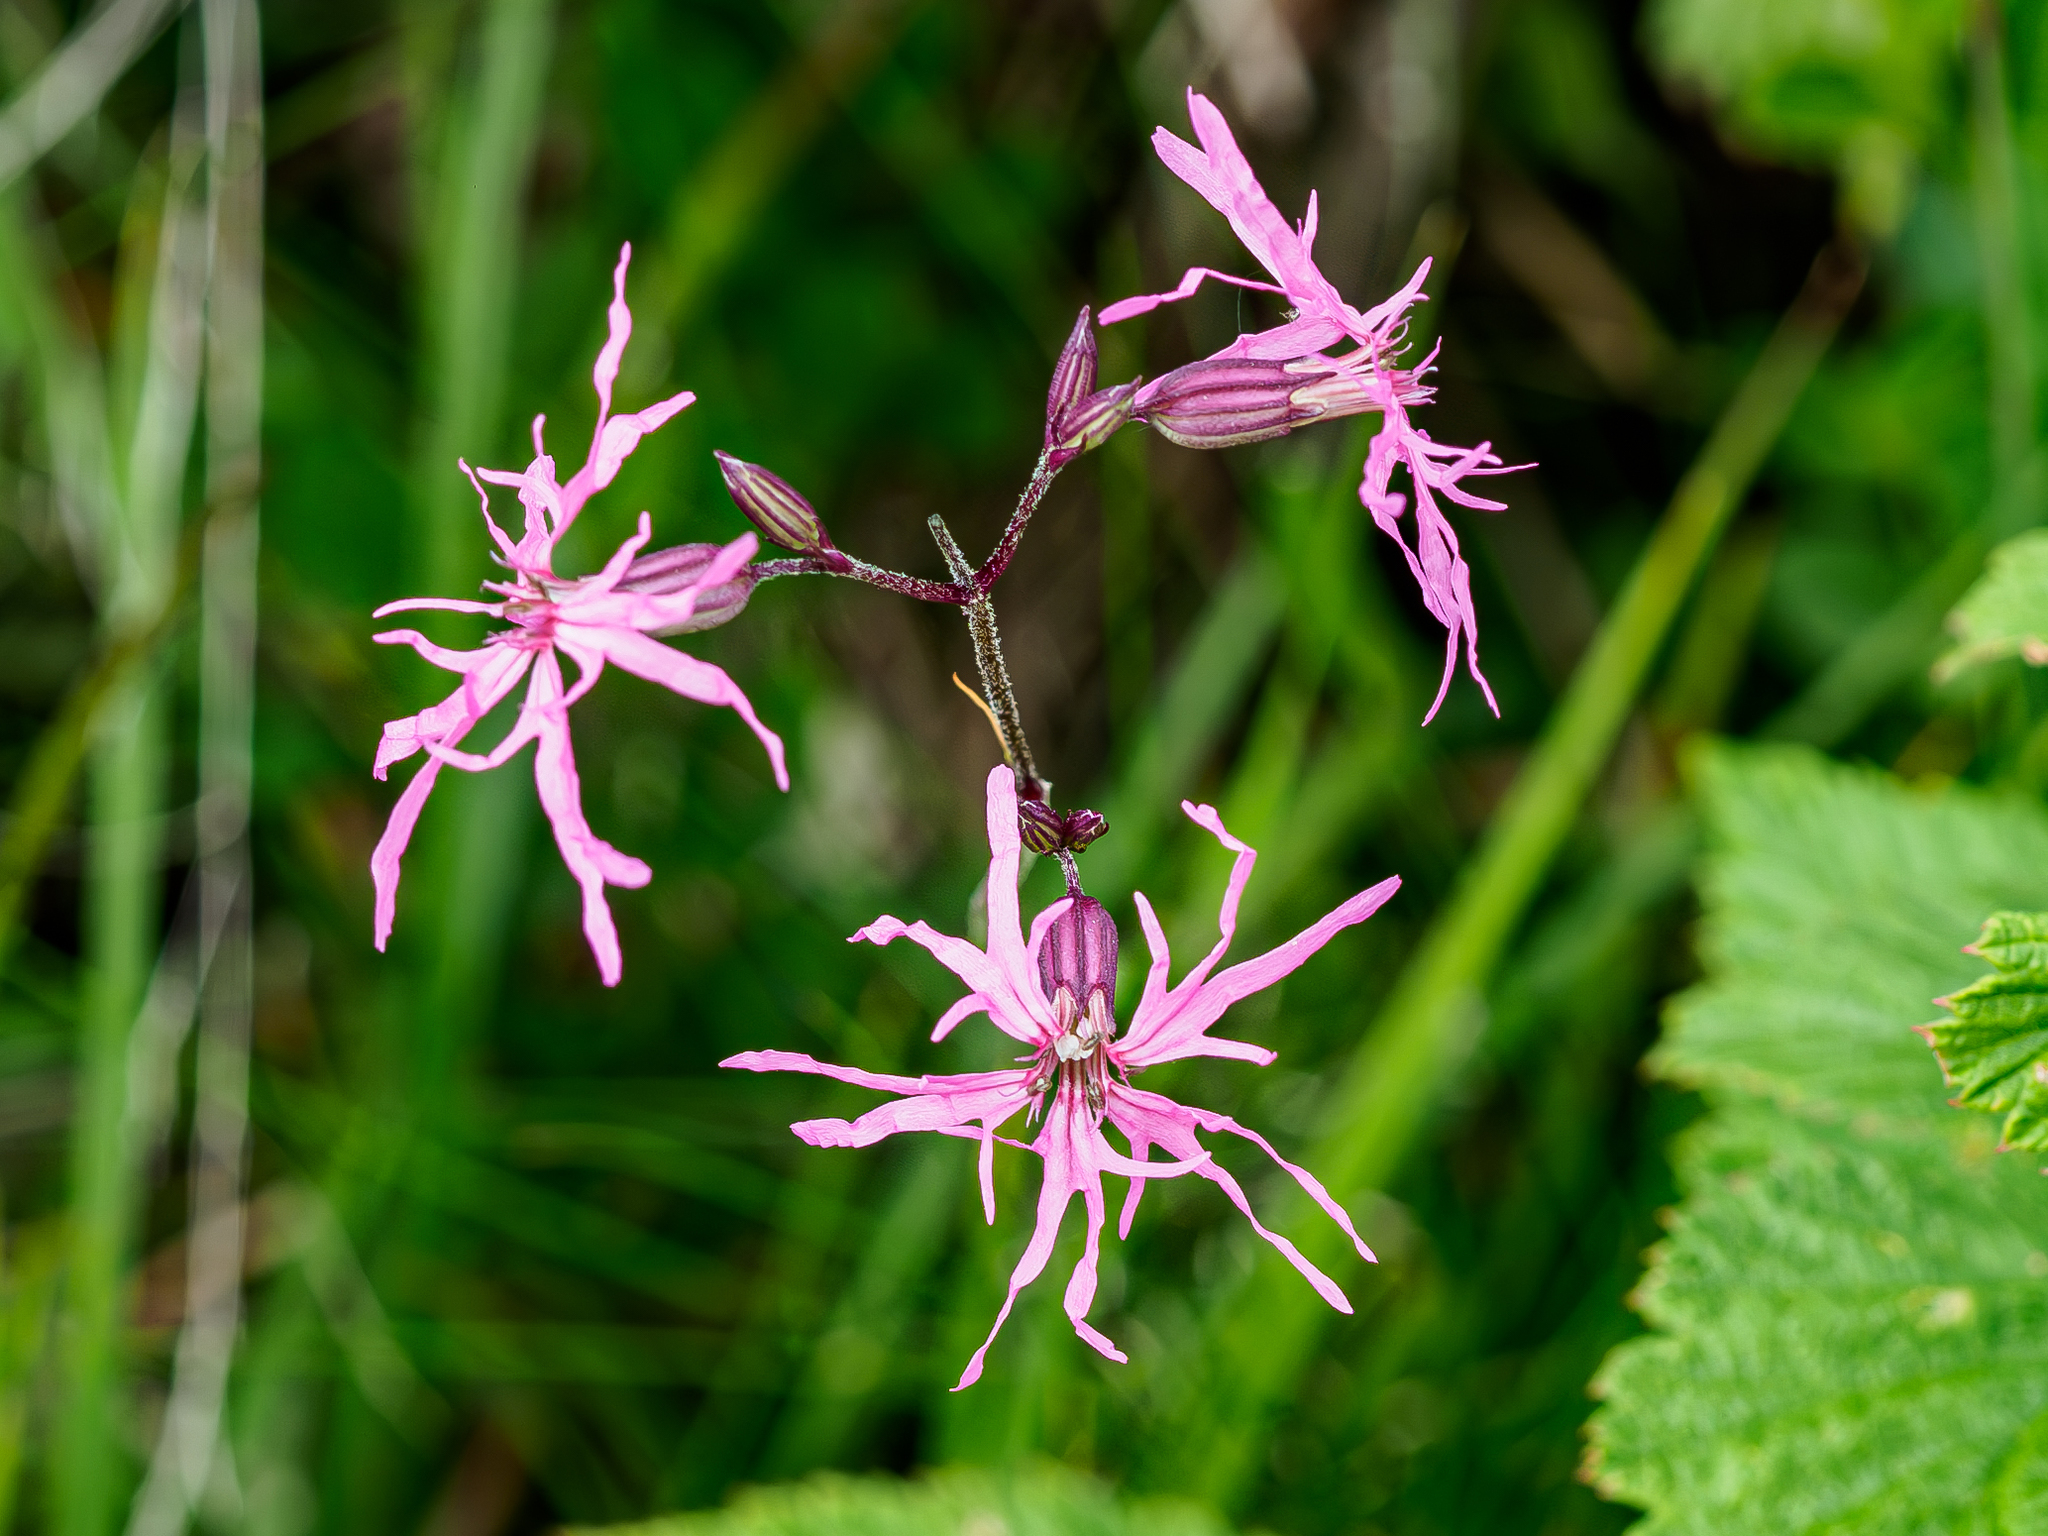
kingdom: Plantae
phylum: Tracheophyta
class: Magnoliopsida
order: Caryophyllales
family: Caryophyllaceae
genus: Silene
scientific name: Silene flos-cuculi
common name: Ragged-robin
